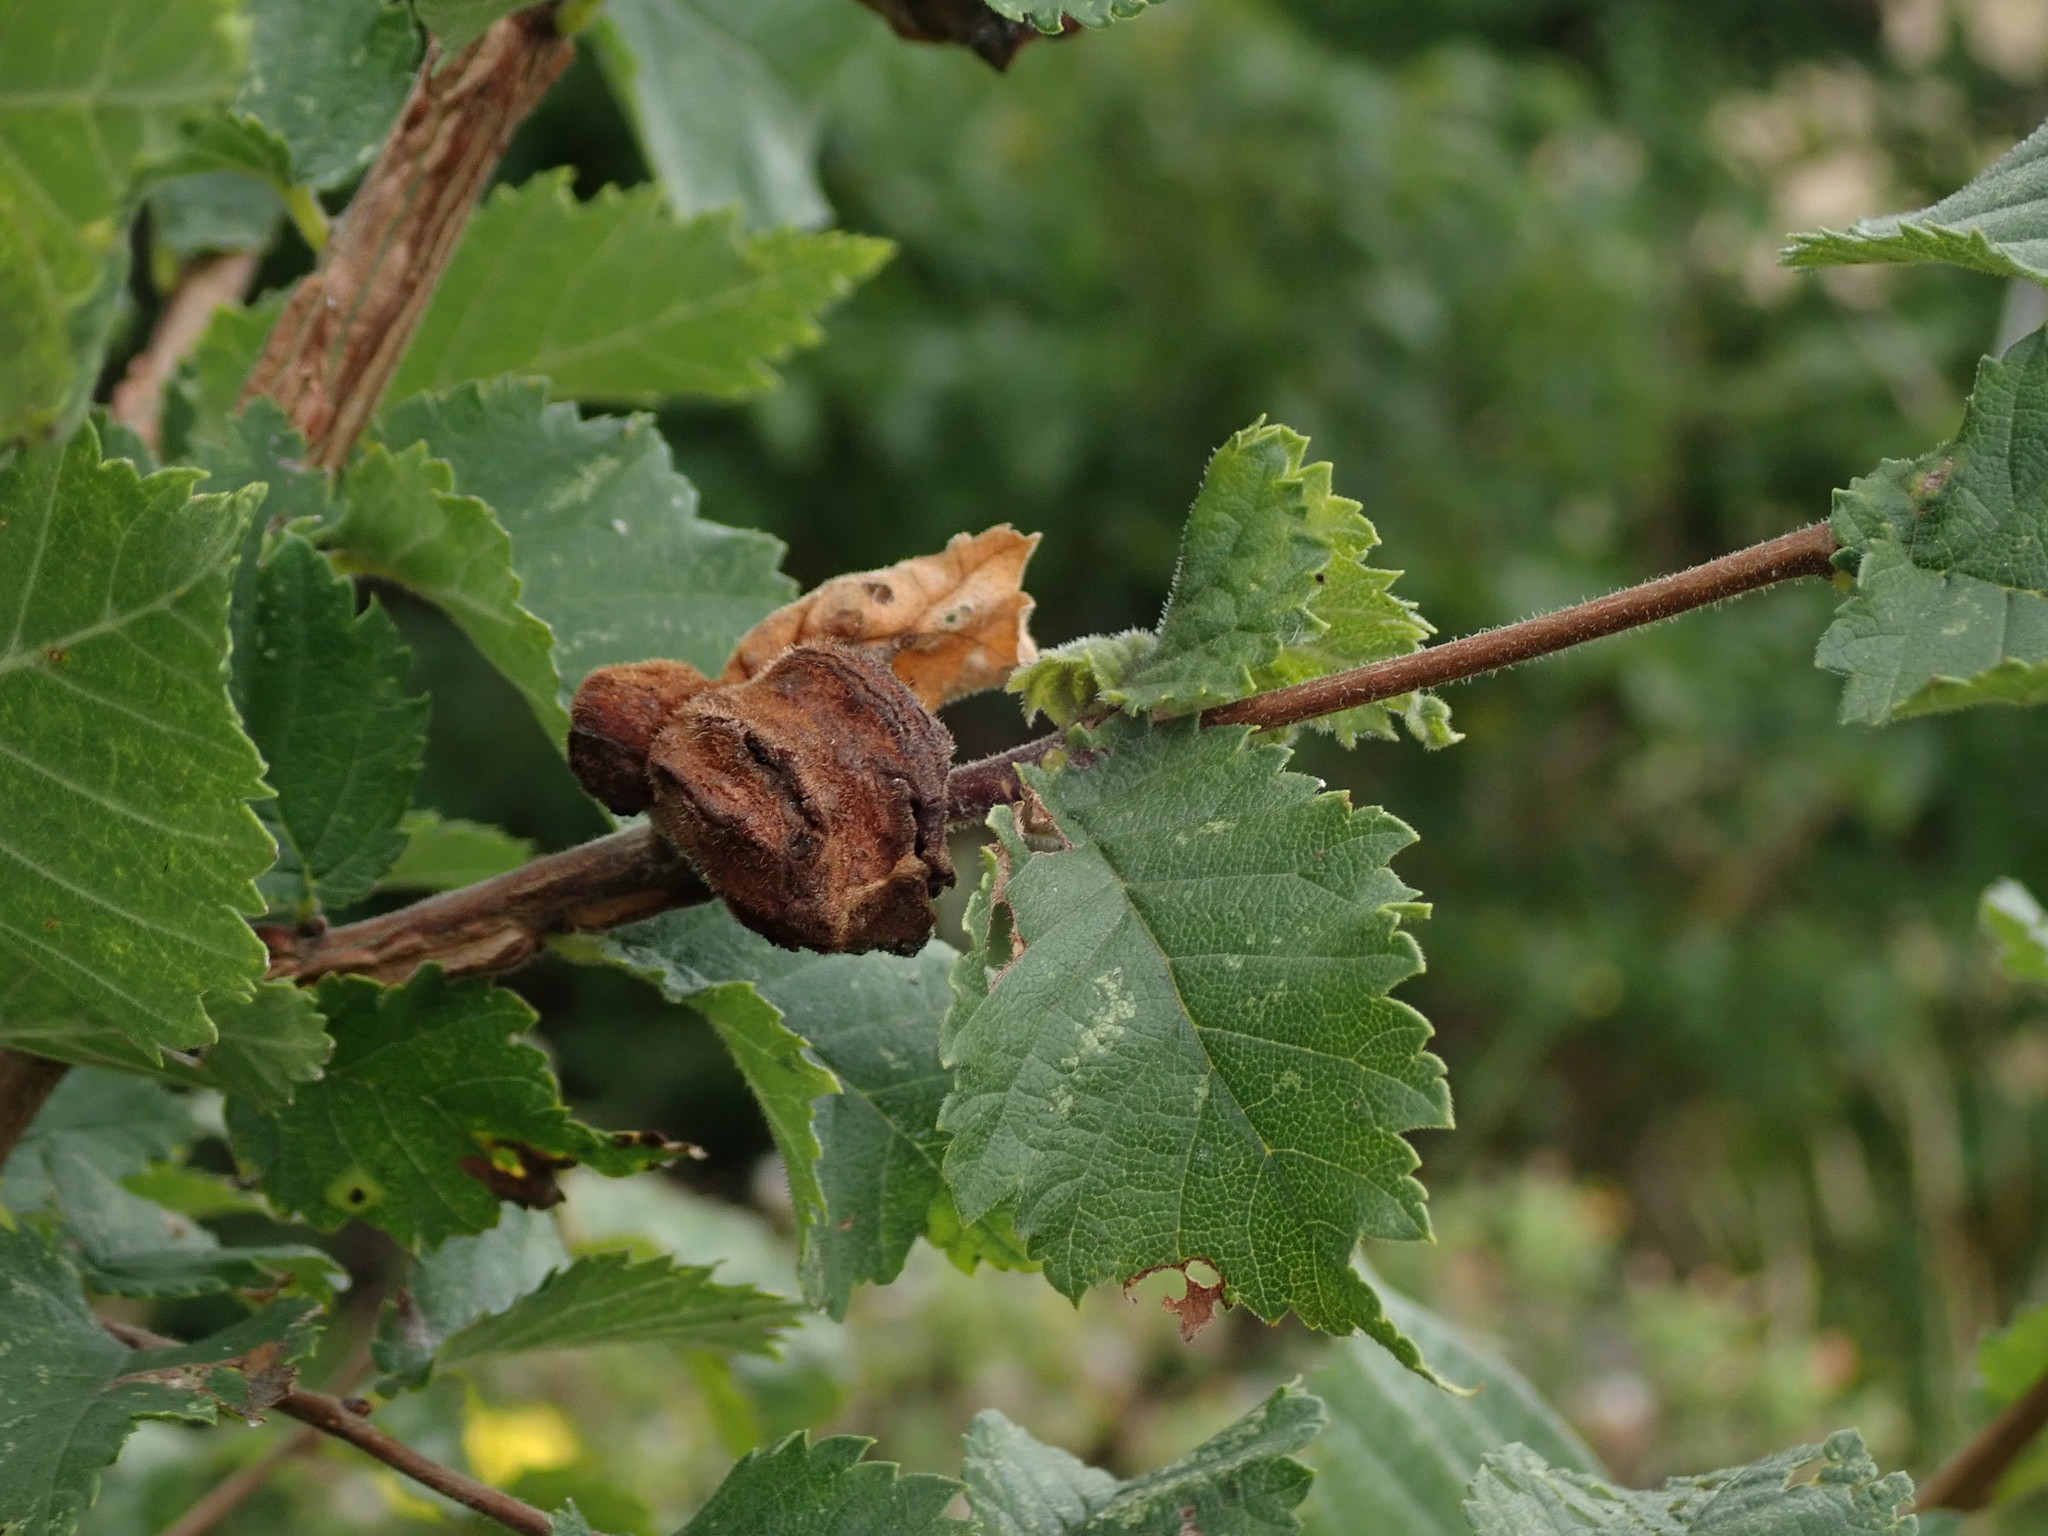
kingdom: Animalia
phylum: Arthropoda
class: Insecta
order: Hemiptera
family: Aphididae
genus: Eriosoma
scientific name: Eriosoma lanuginosum
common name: Aphid
